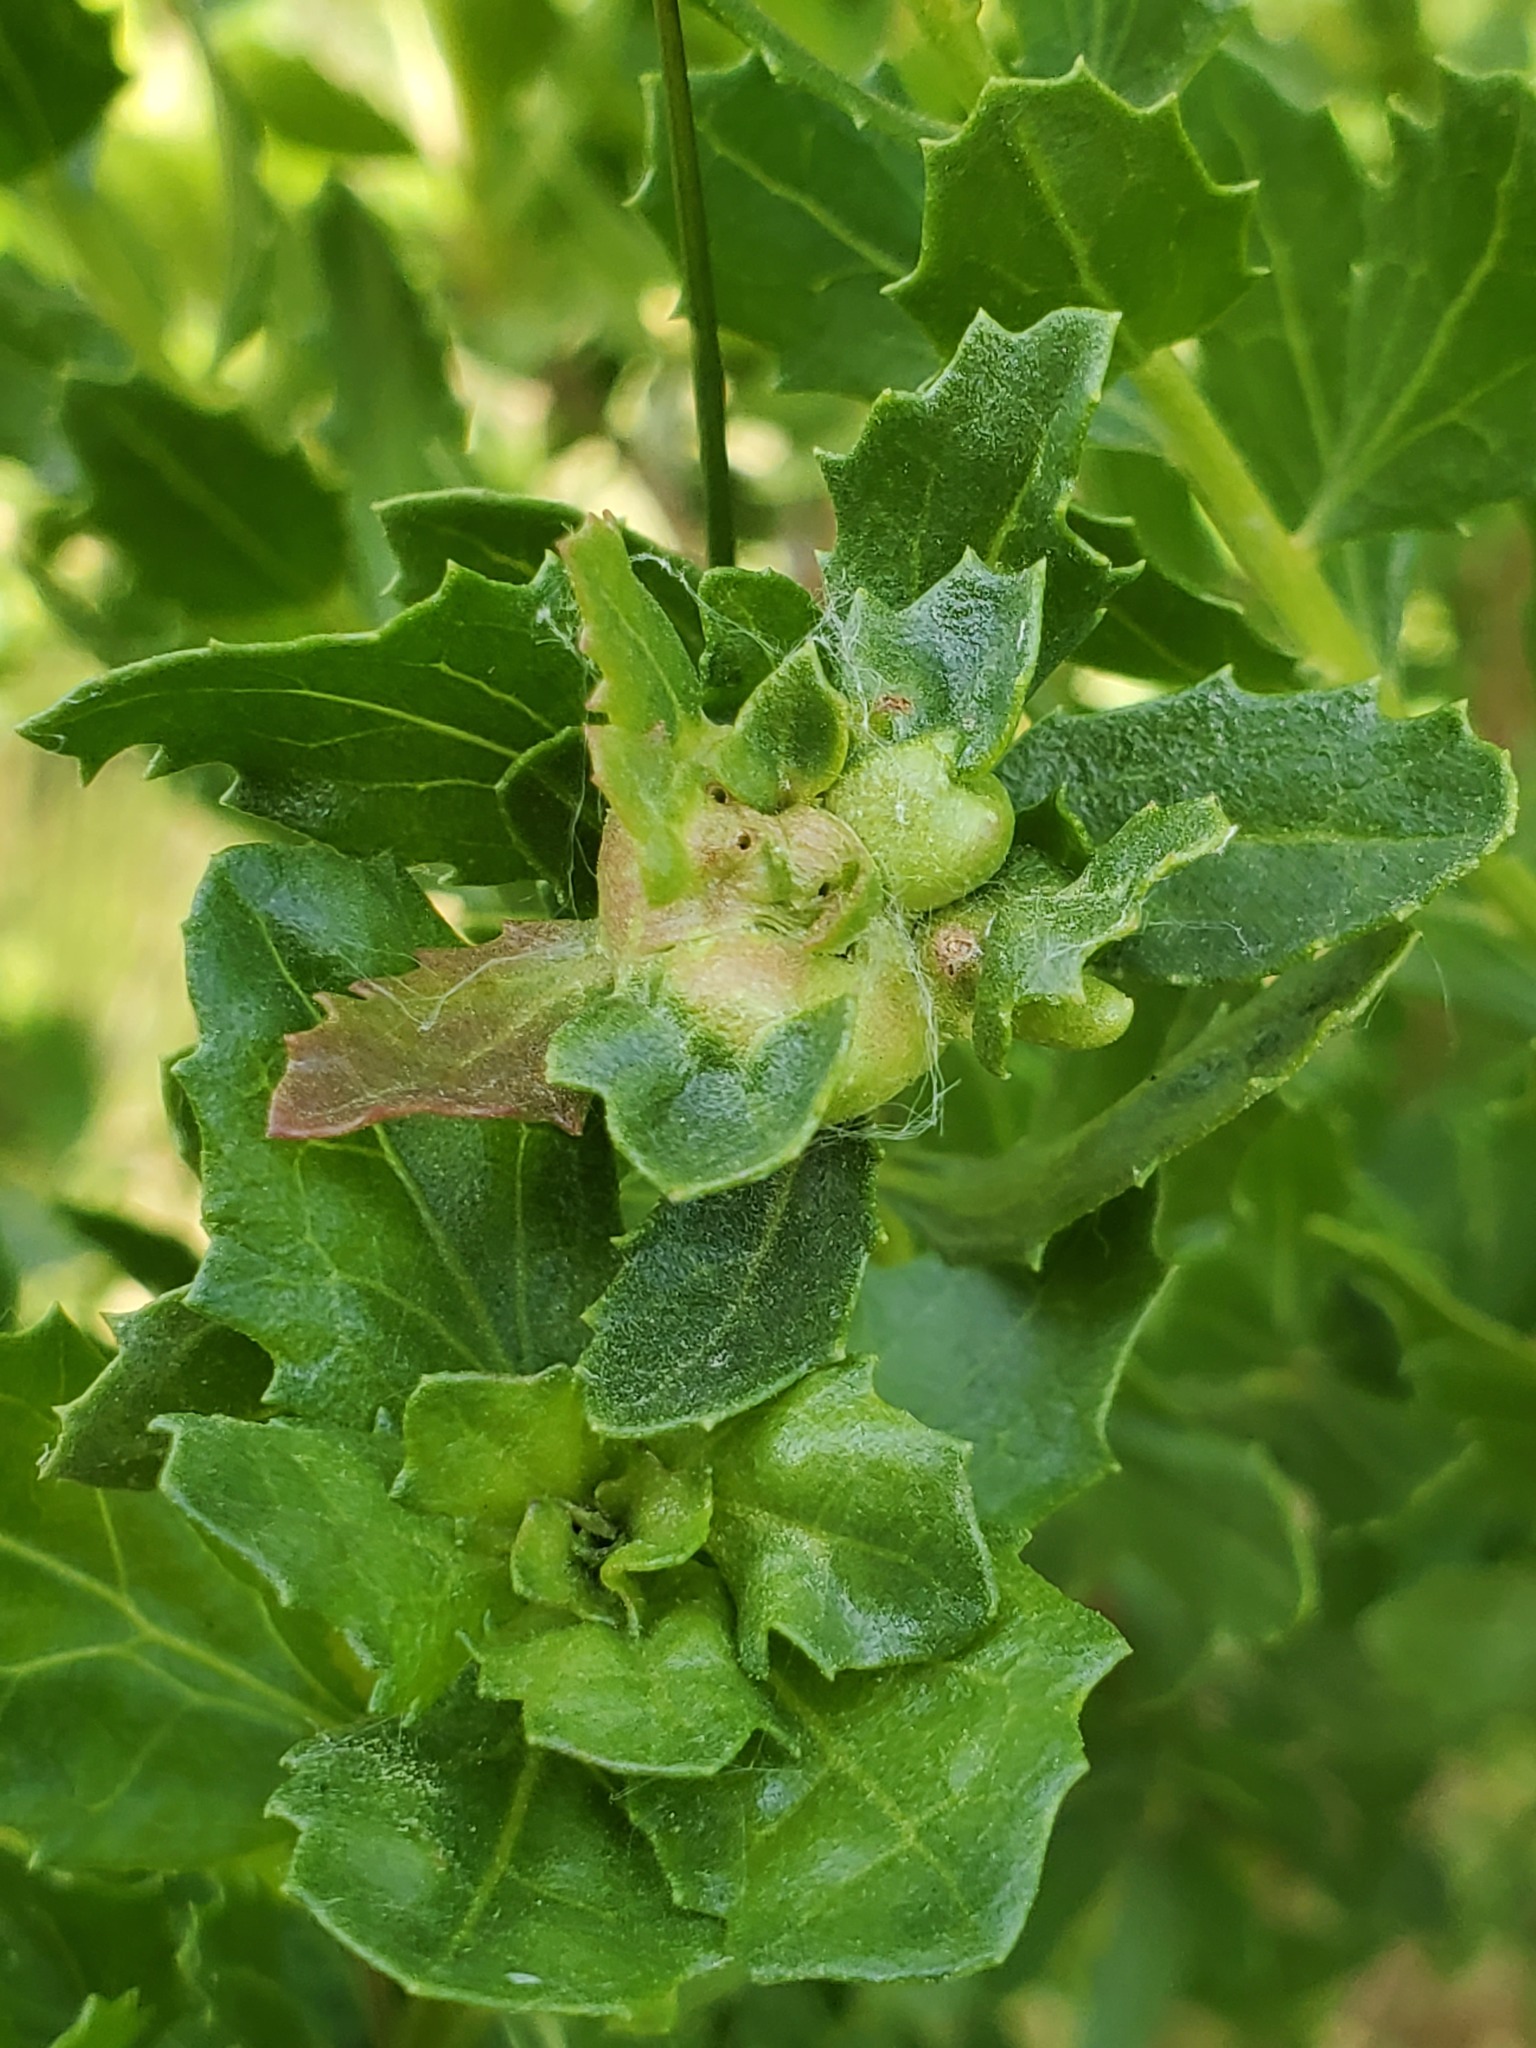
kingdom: Animalia
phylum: Arthropoda
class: Insecta
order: Diptera
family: Cecidomyiidae
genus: Rhopalomyia
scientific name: Rhopalomyia californica
